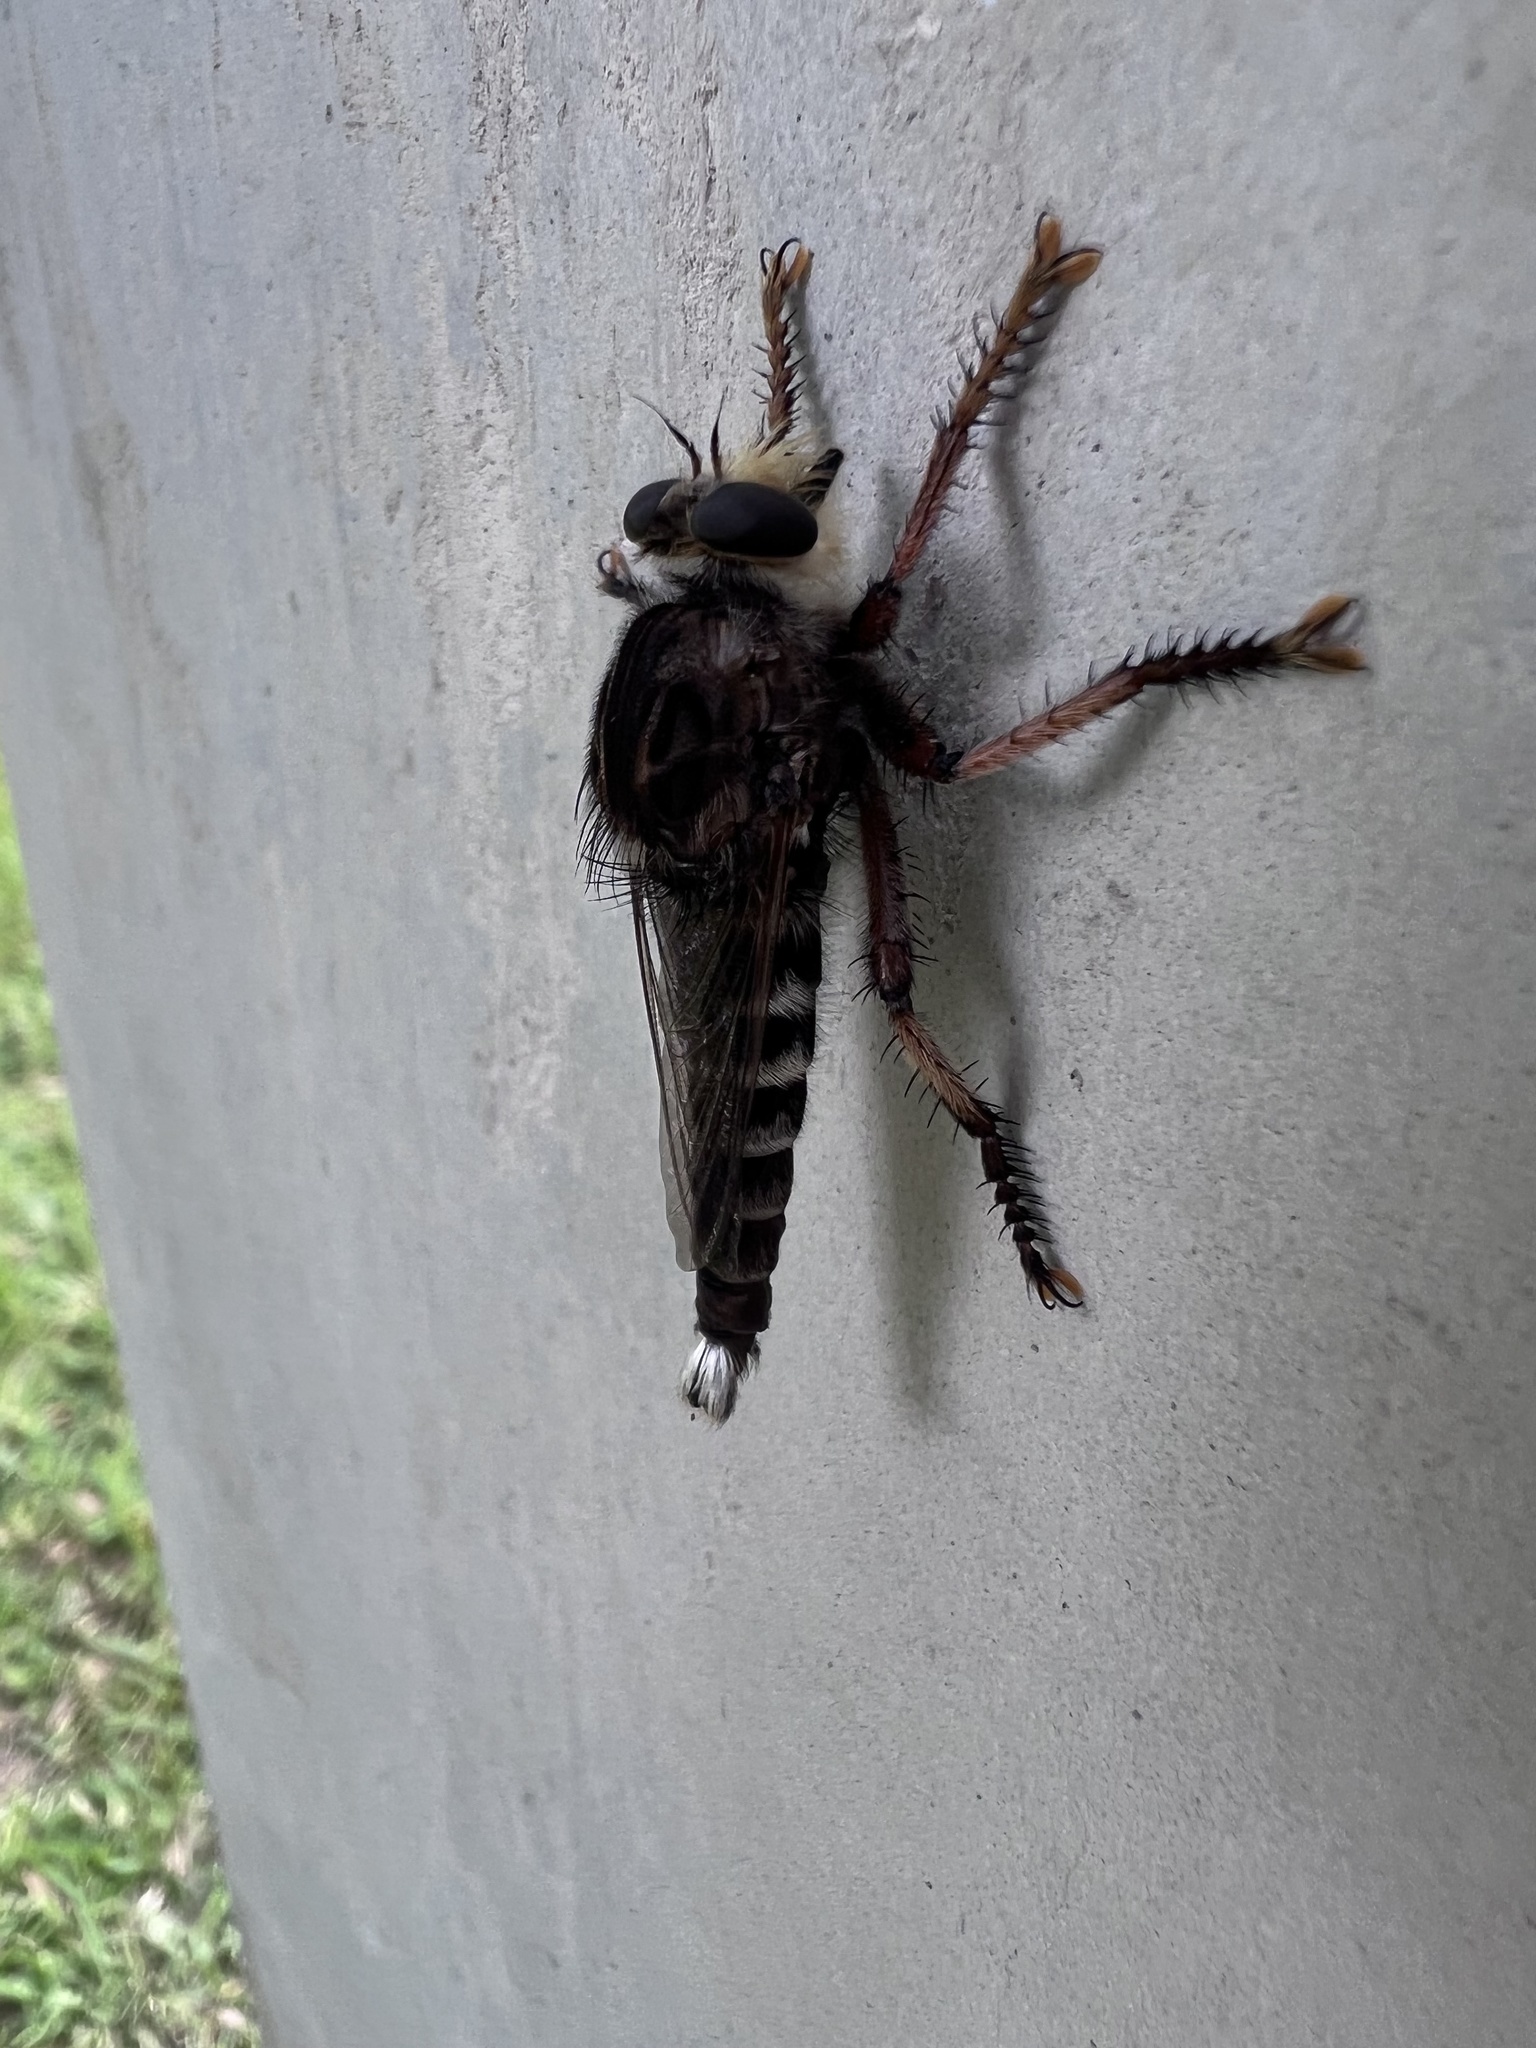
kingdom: Animalia
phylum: Arthropoda
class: Insecta
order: Diptera
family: Asilidae
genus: Promachus
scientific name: Promachus bastardii
